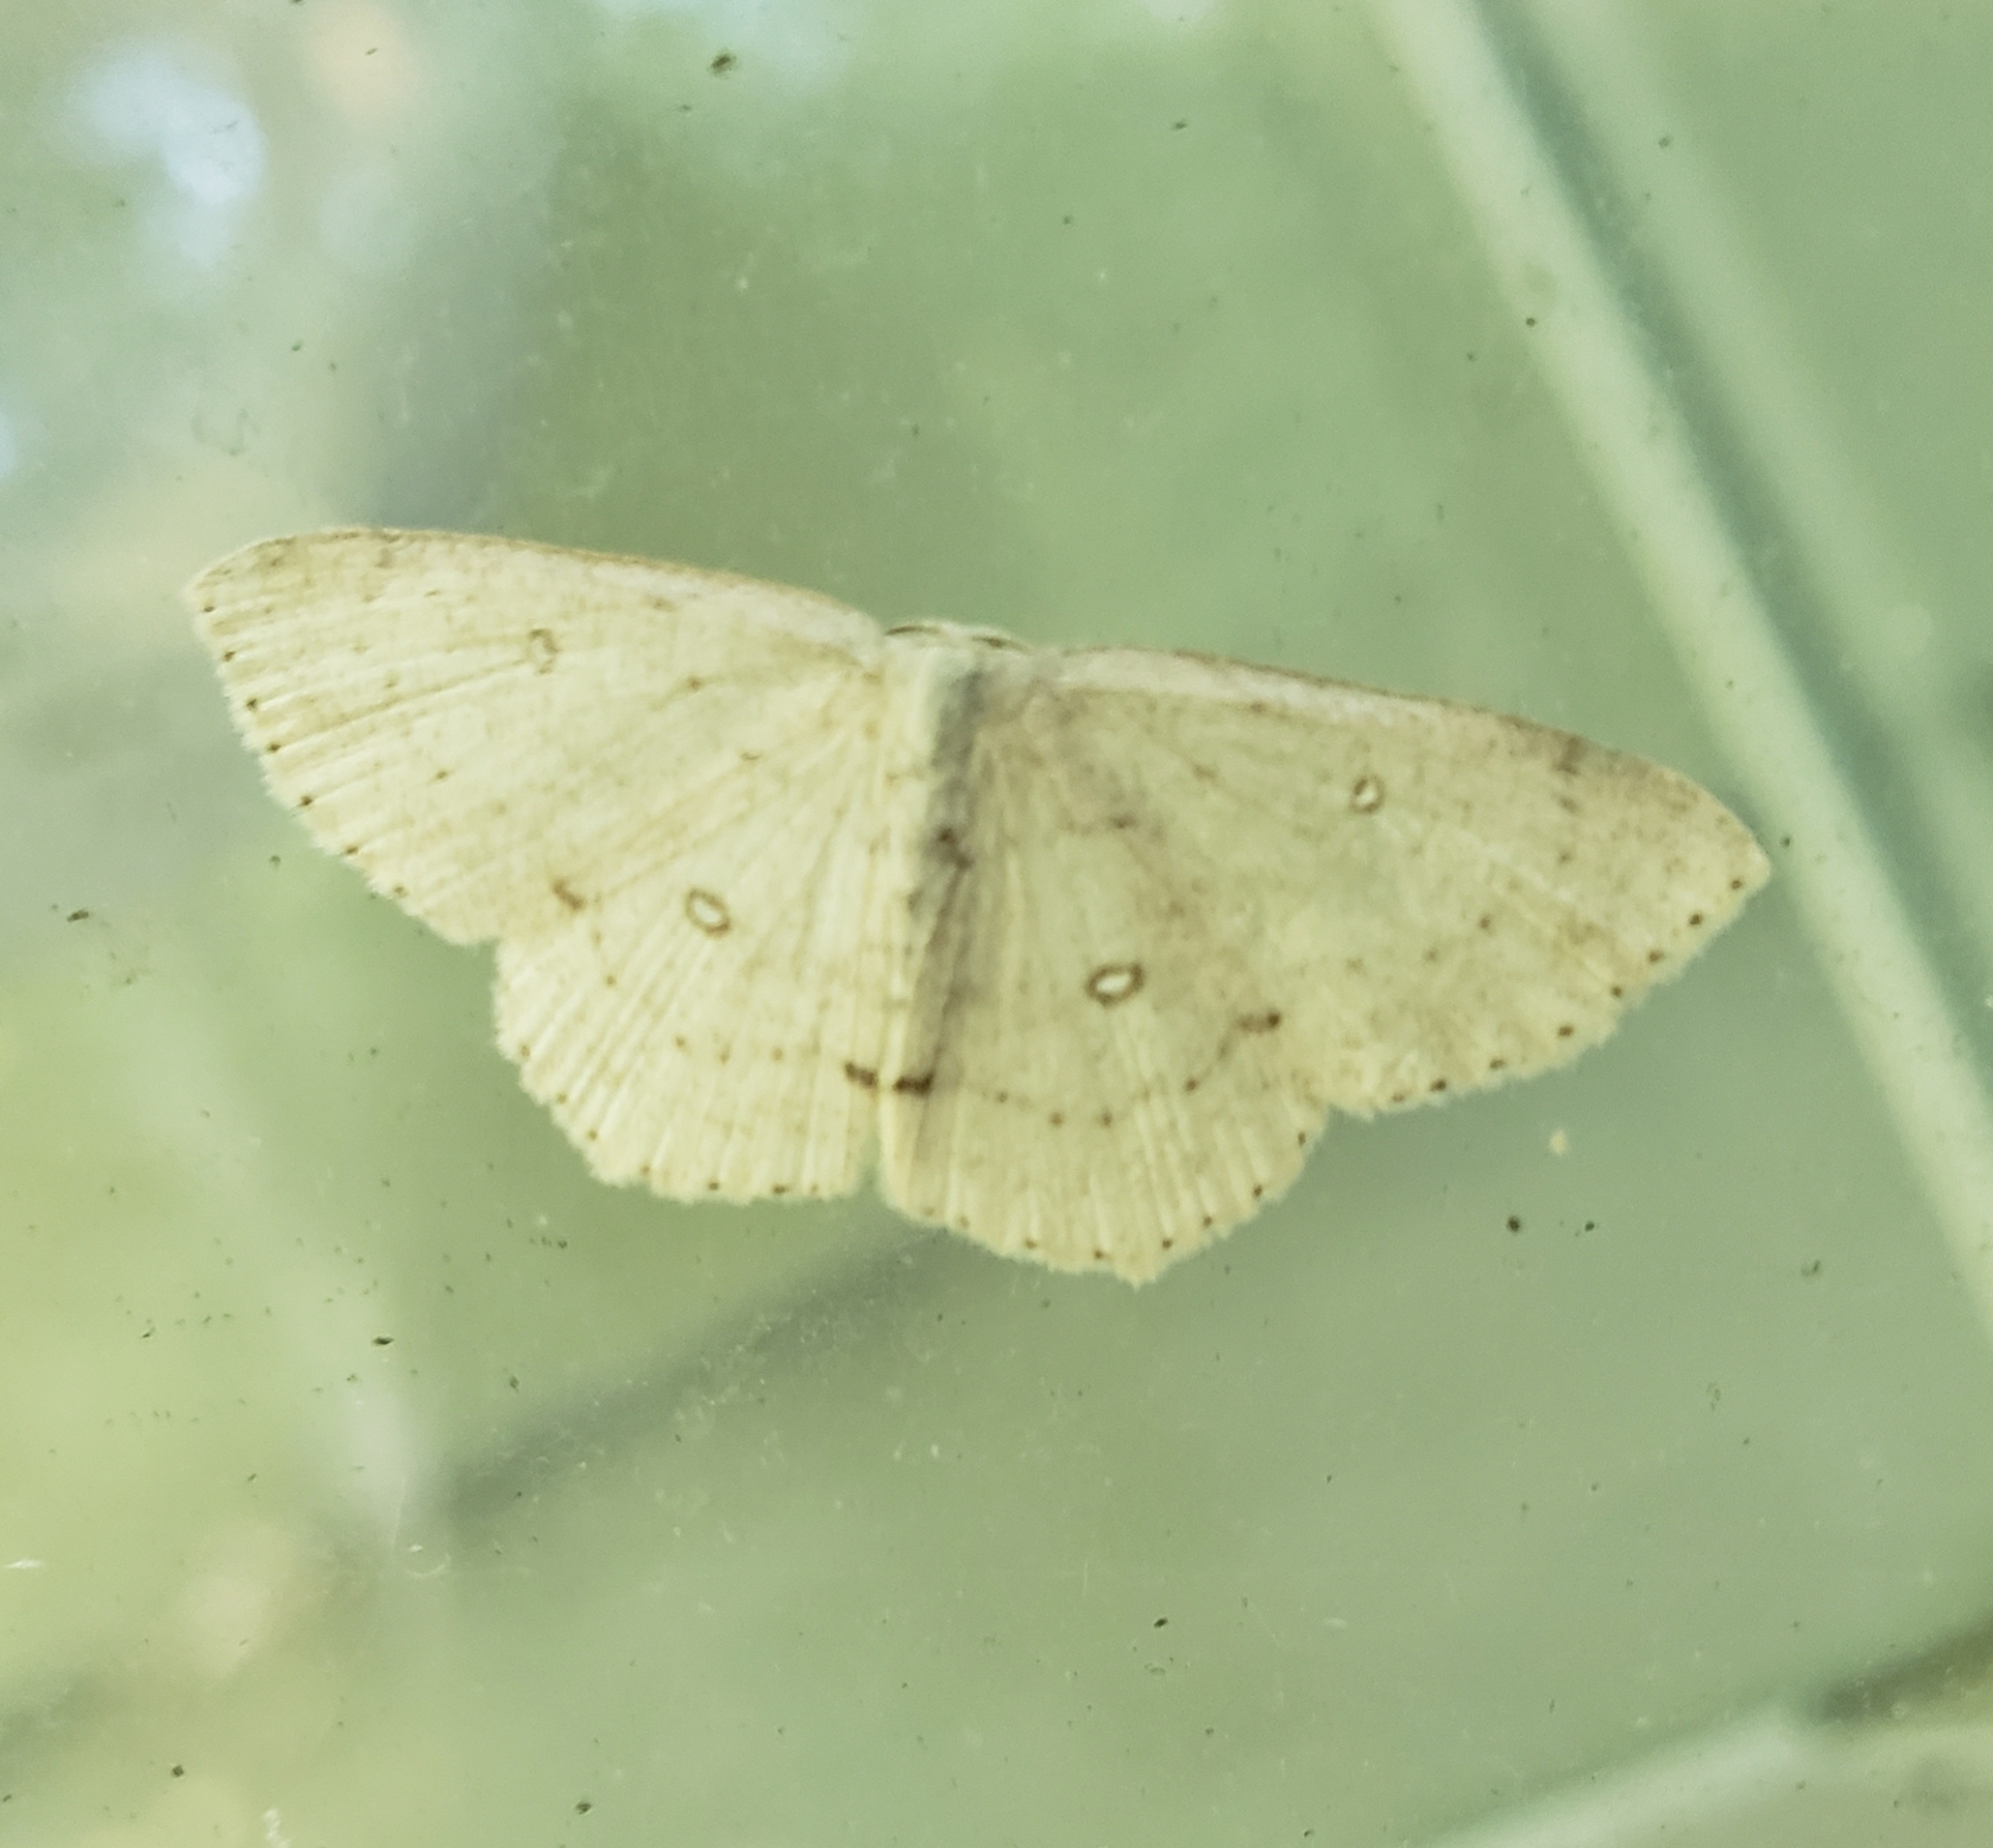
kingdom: Animalia
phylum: Arthropoda
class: Insecta
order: Lepidoptera
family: Geometridae
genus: Cyclophora
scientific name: Cyclophora pendulinaria
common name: Sweet fern geometer
